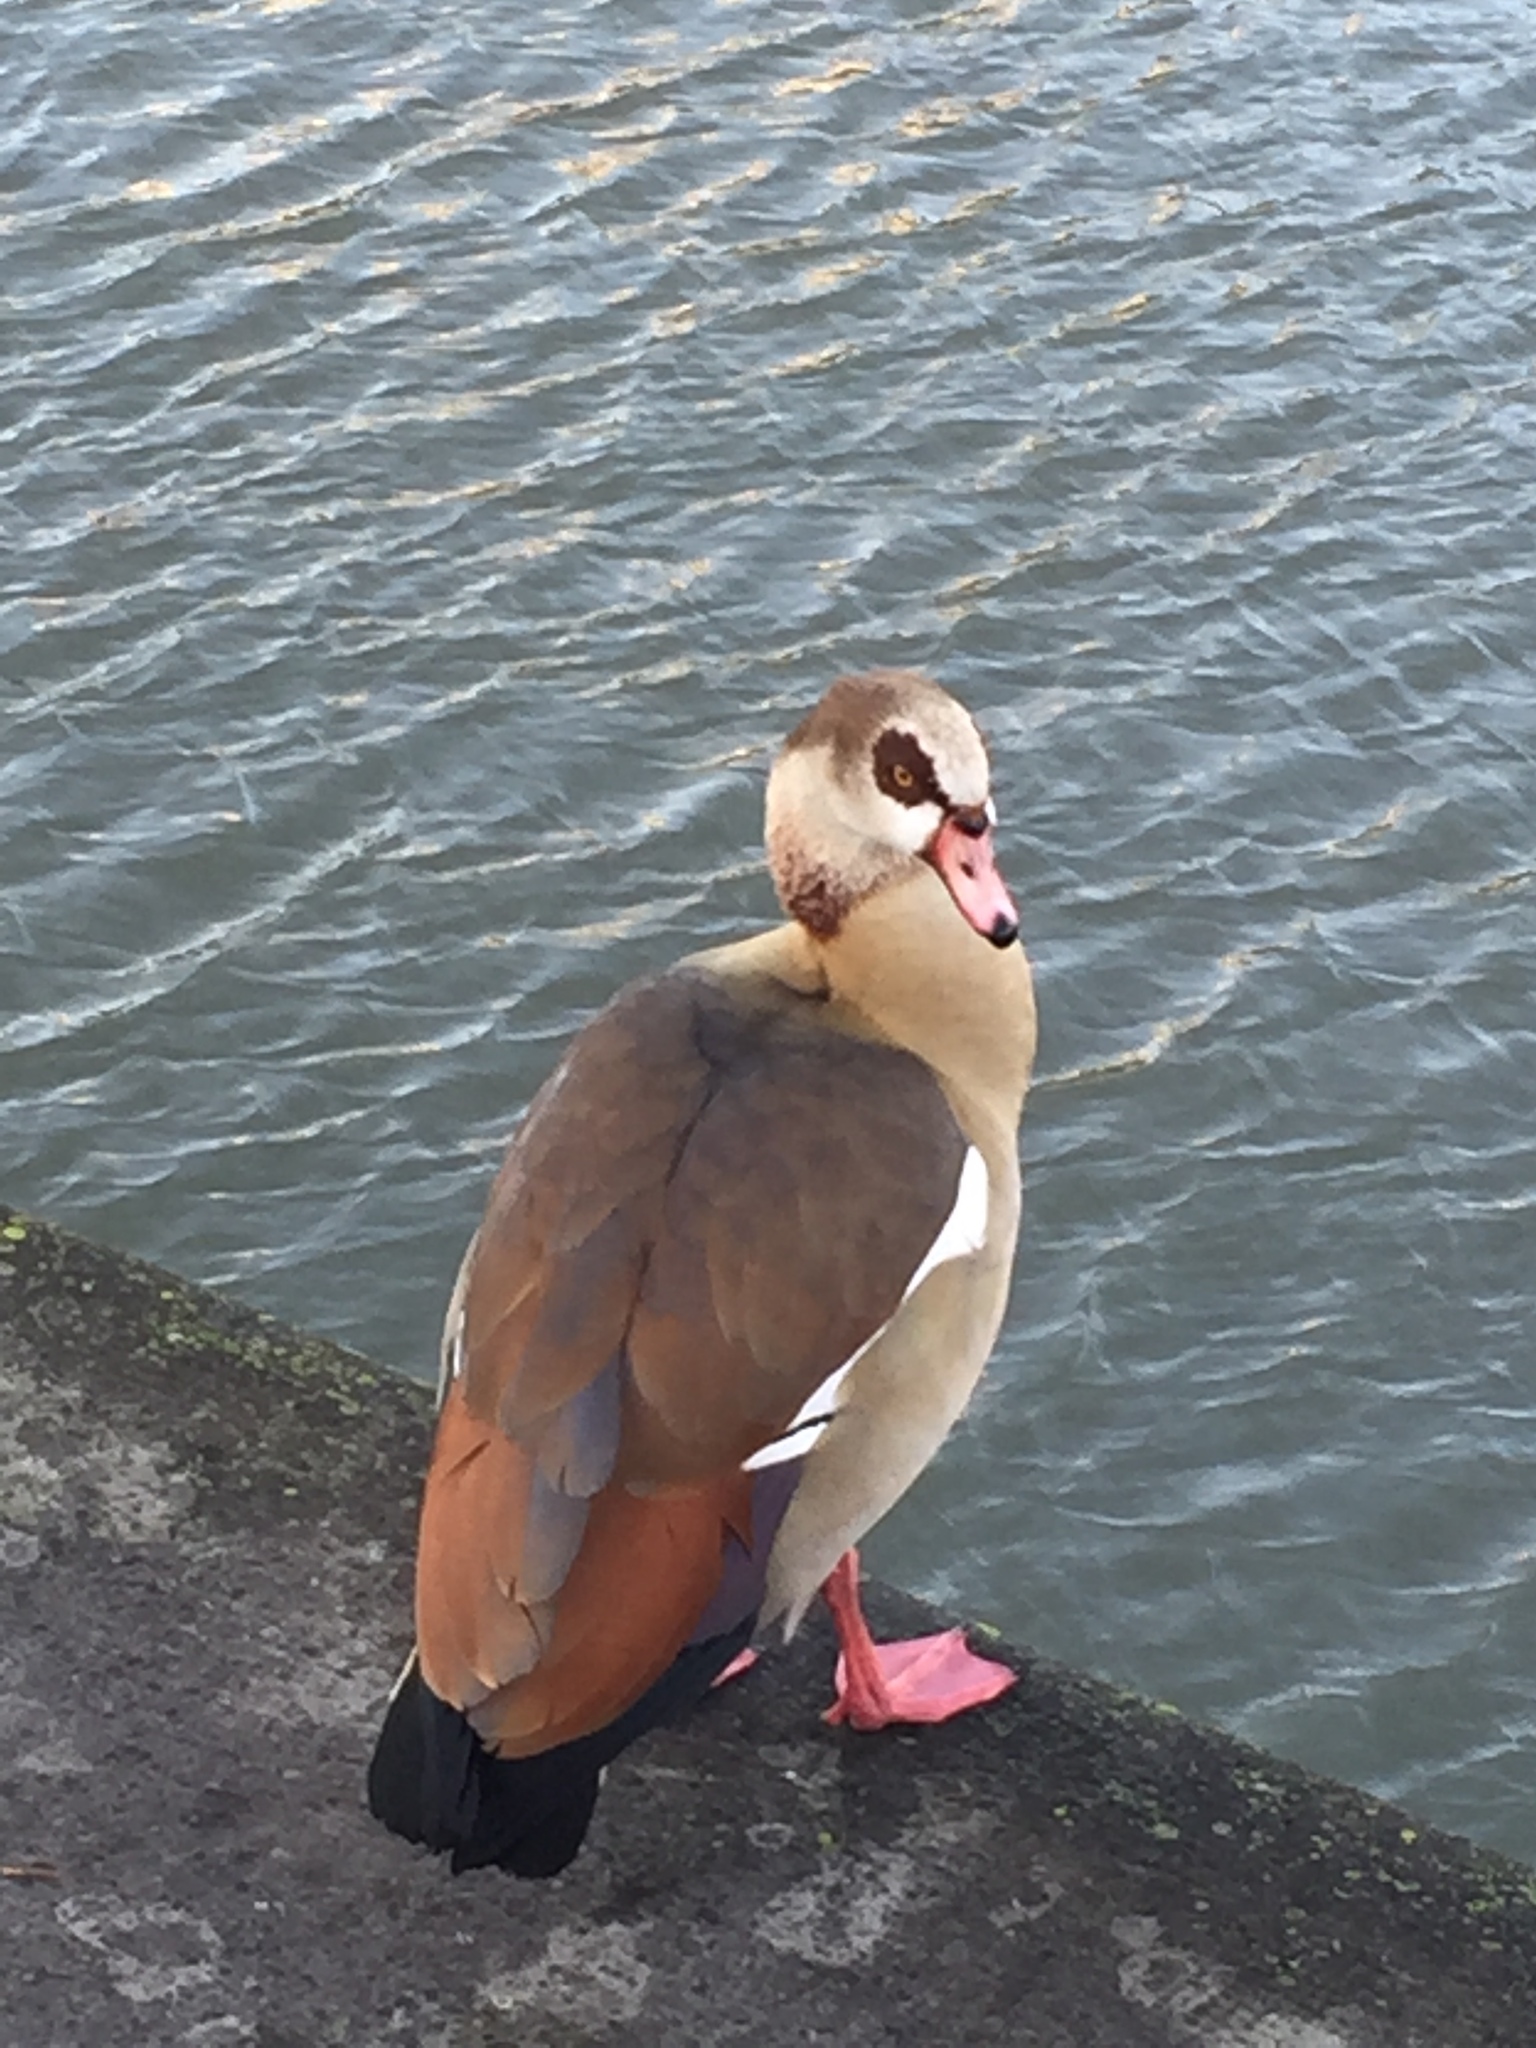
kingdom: Animalia
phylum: Chordata
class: Aves
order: Anseriformes
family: Anatidae
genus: Alopochen
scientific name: Alopochen aegyptiaca
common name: Egyptian goose
